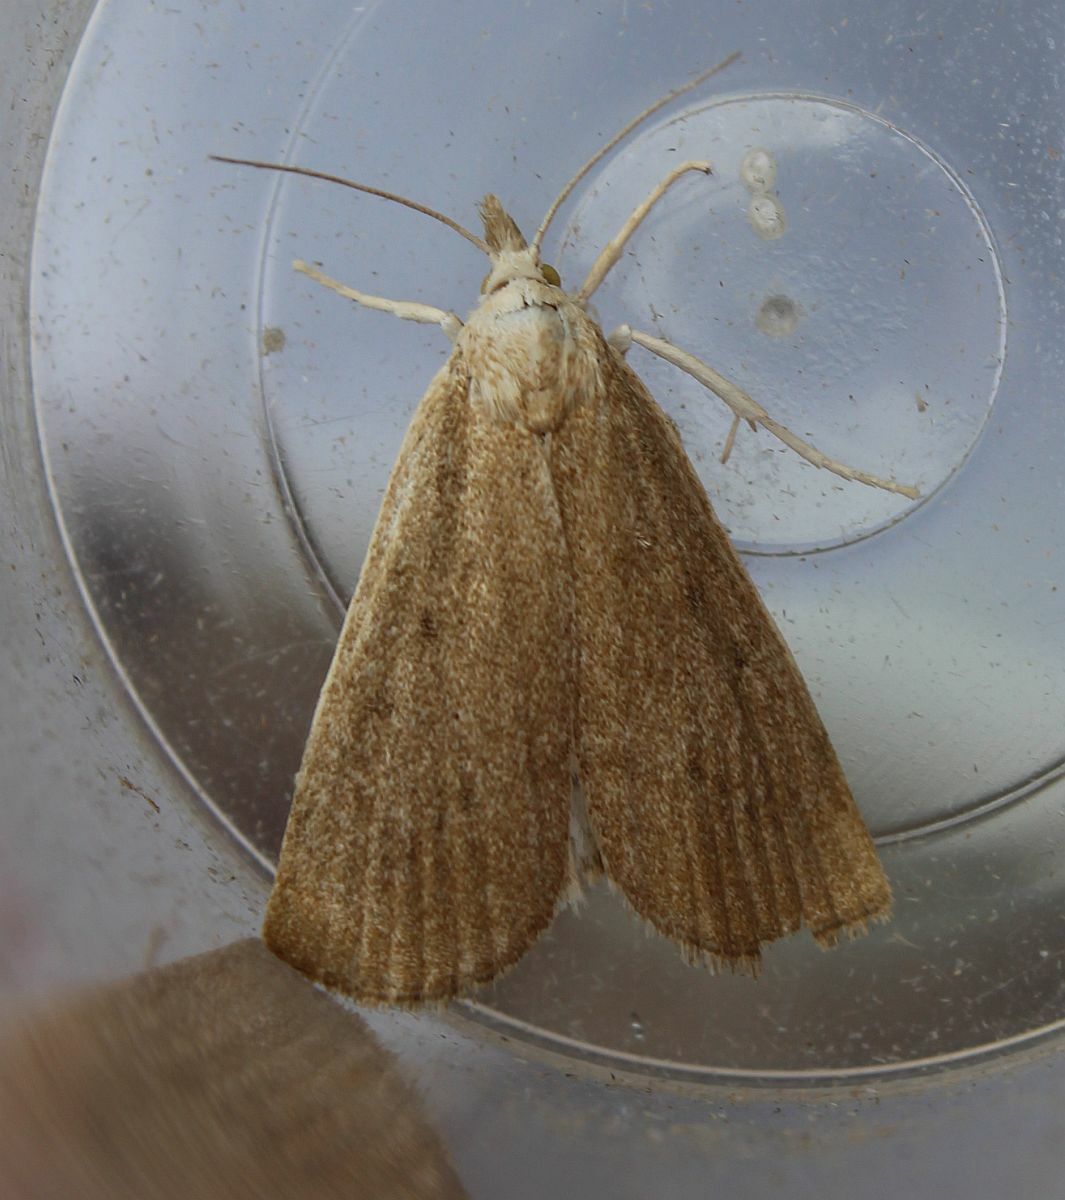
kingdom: Animalia
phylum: Arthropoda
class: Insecta
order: Lepidoptera
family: Crambidae
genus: Calamotropha
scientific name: Calamotropha paludella
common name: Bulrush veneer
